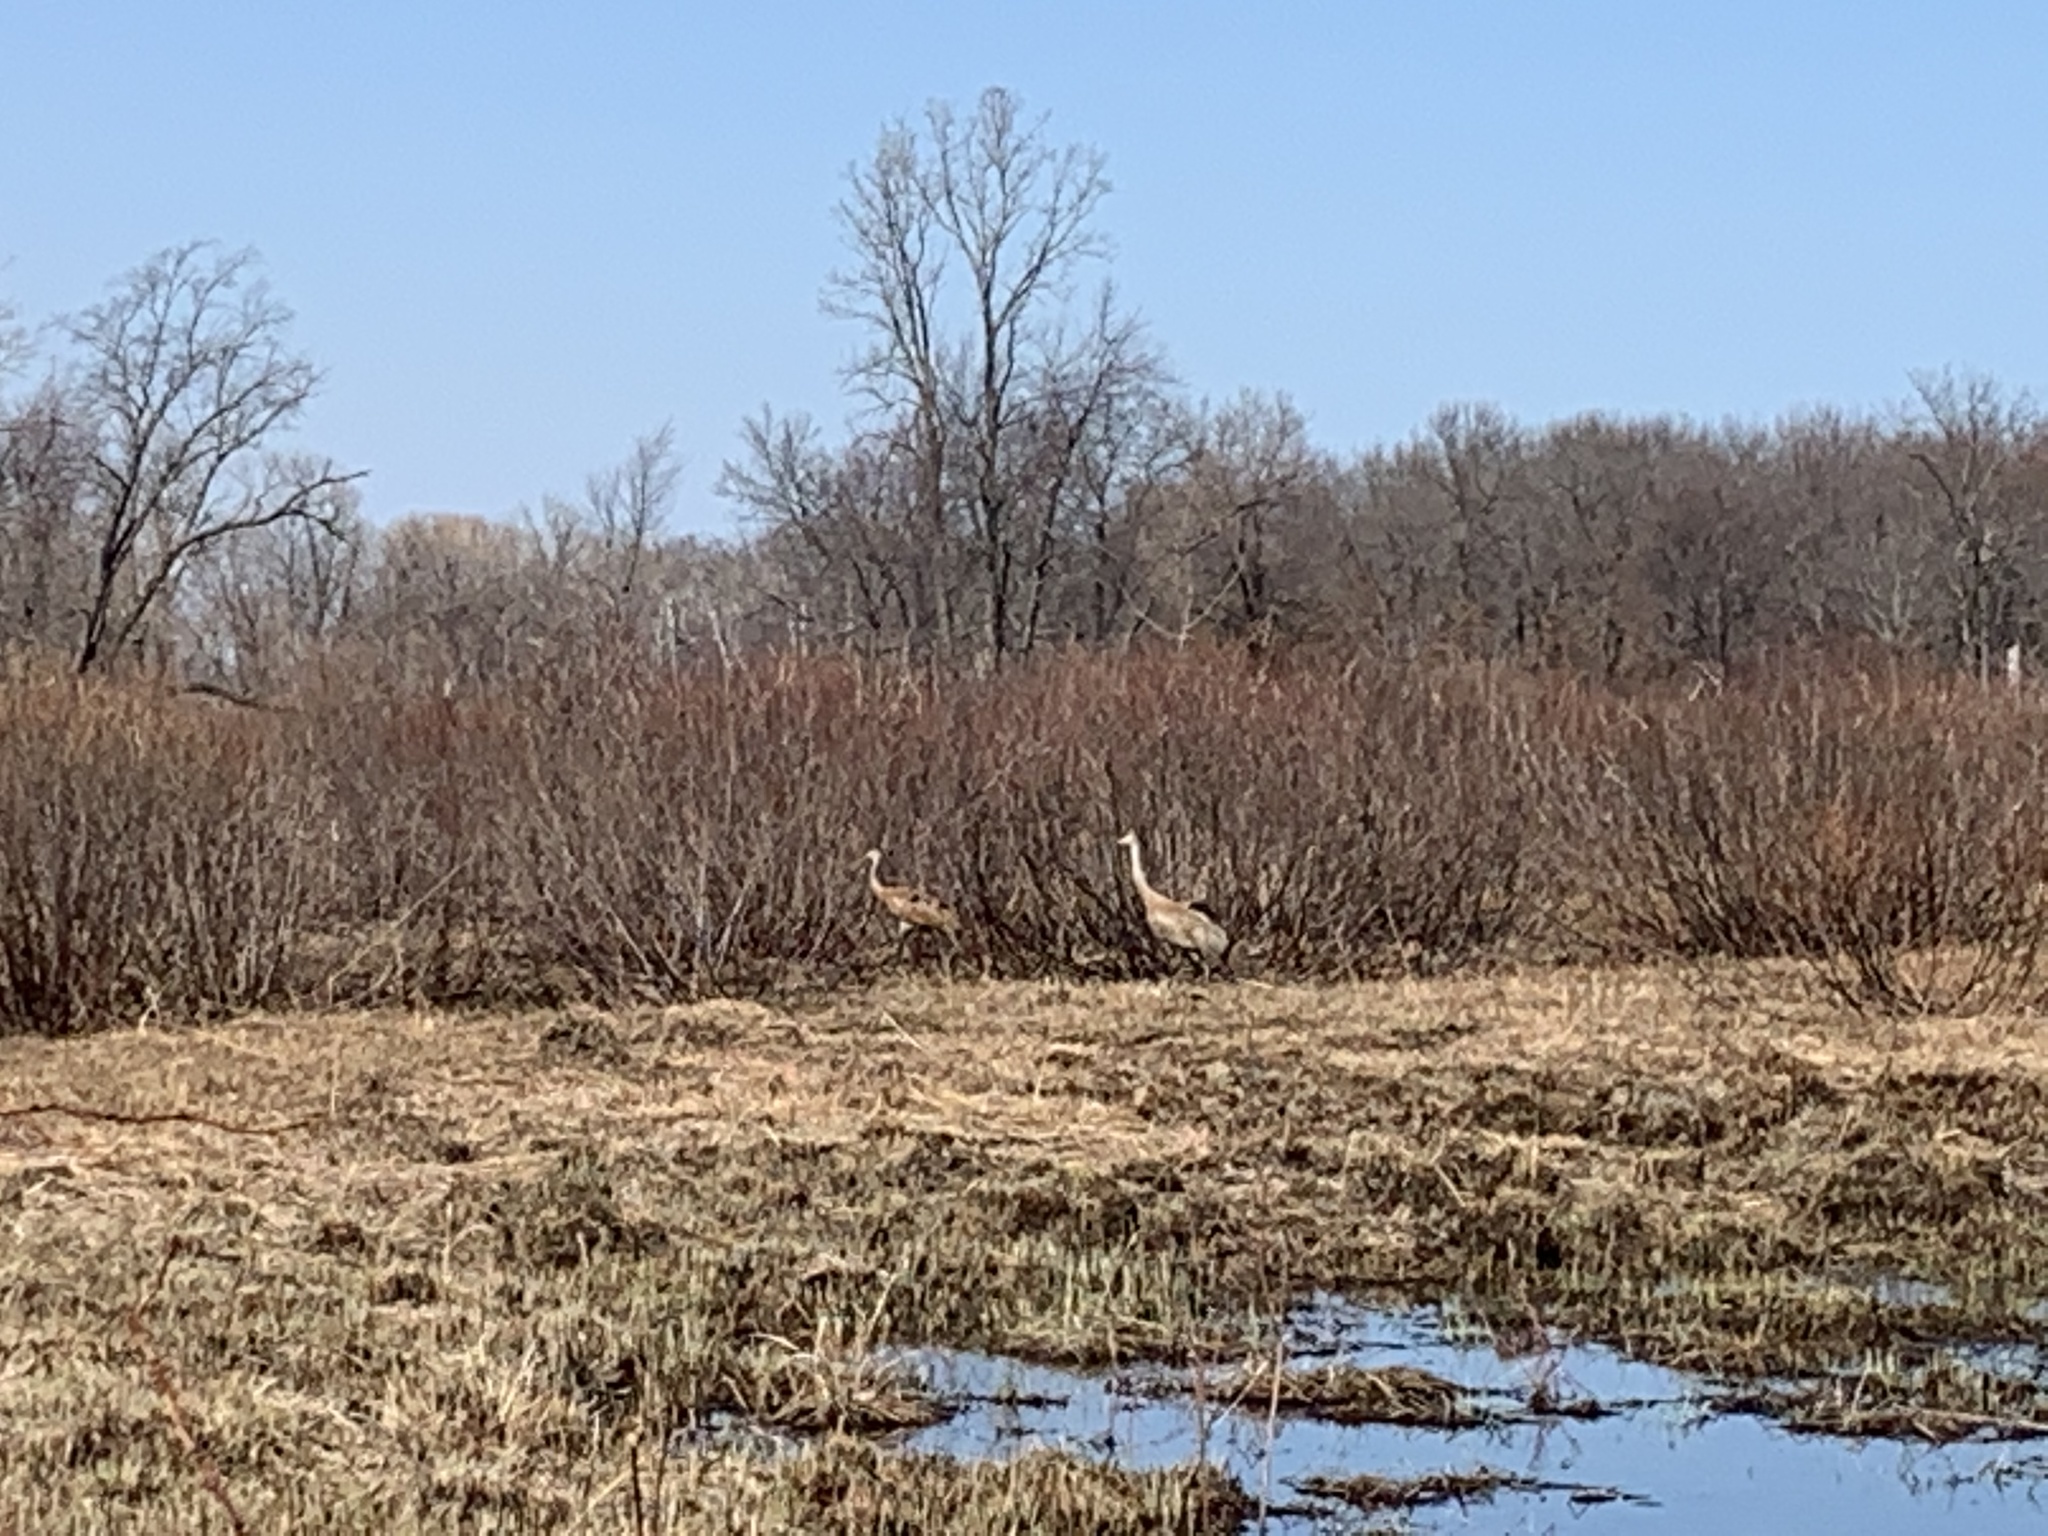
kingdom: Animalia
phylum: Chordata
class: Aves
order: Gruiformes
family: Gruidae
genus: Grus
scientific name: Grus canadensis
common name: Sandhill crane
